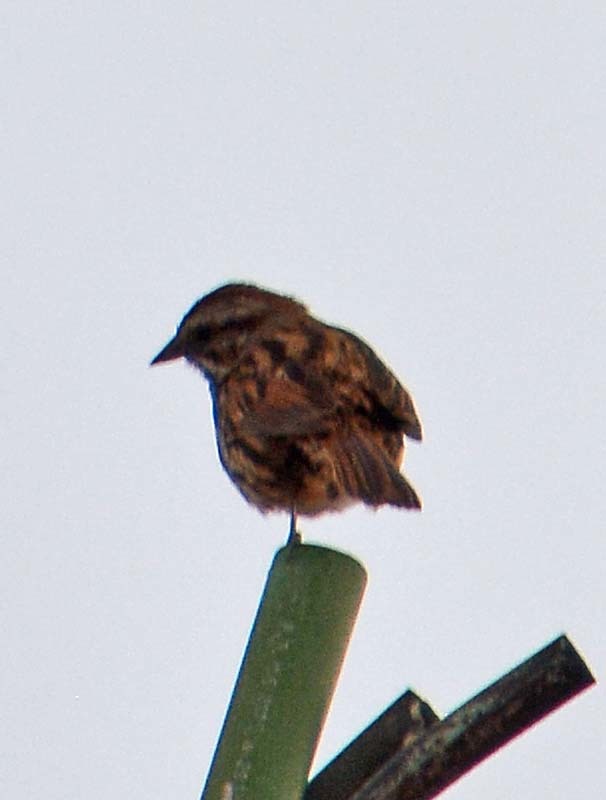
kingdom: Animalia
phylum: Chordata
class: Aves
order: Passeriformes
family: Passerellidae
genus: Melospiza
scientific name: Melospiza melodia
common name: Song sparrow
